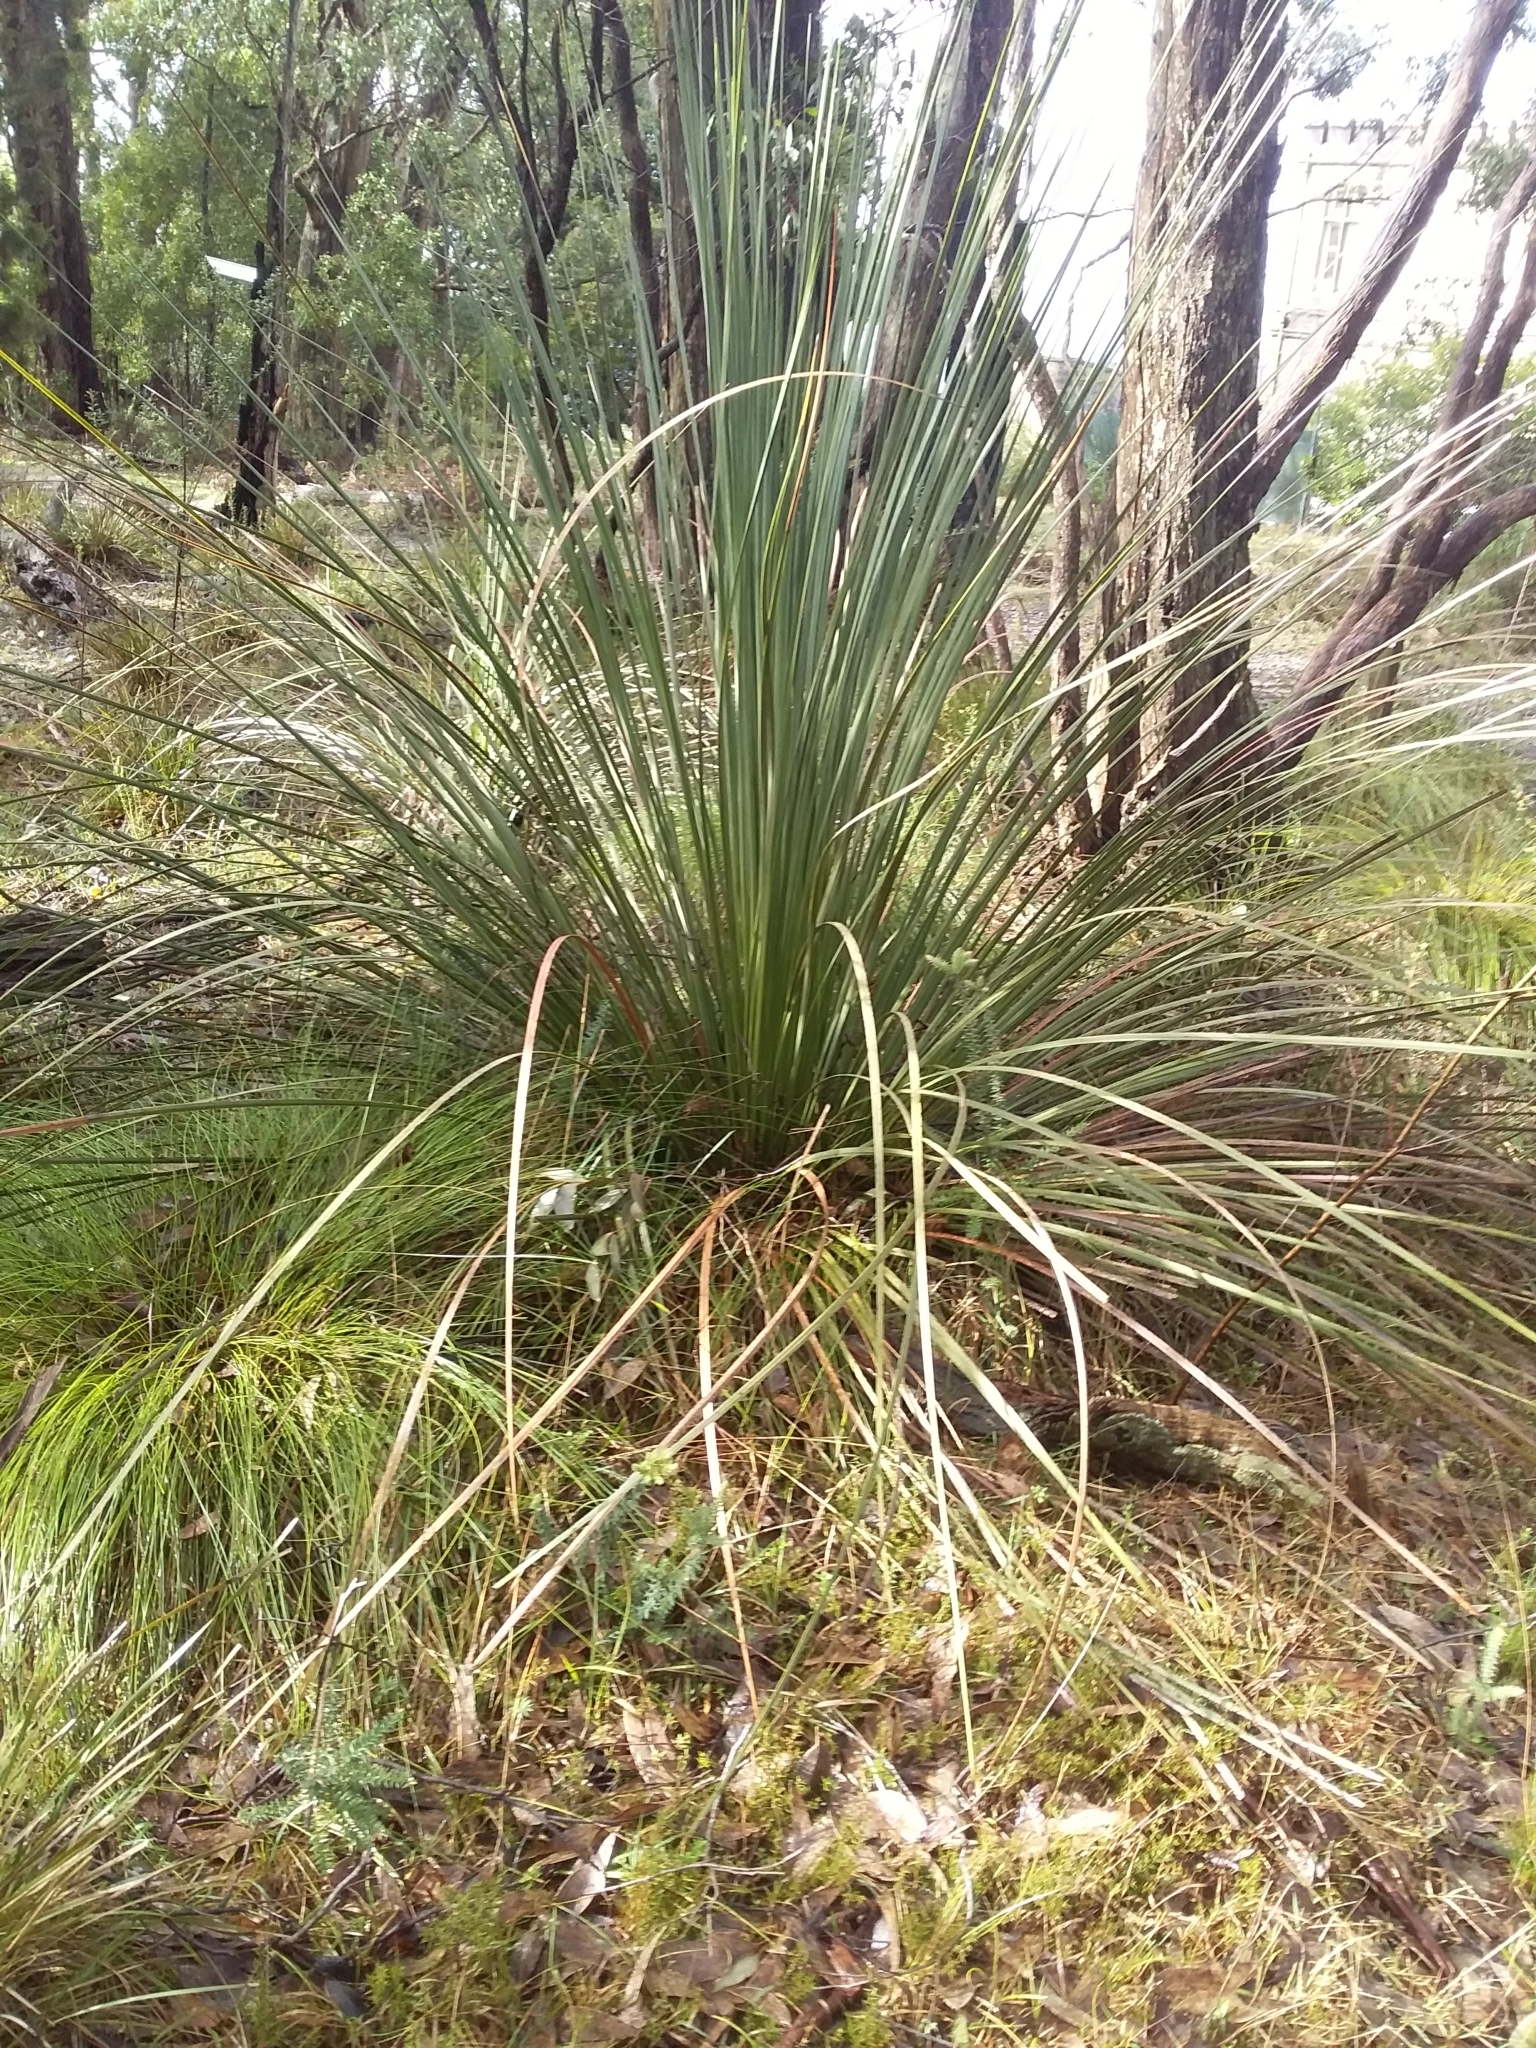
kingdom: Plantae
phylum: Tracheophyta
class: Liliopsida
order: Asparagales
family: Asphodelaceae
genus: Xanthorrhoea
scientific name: Xanthorrhoea semiplana
